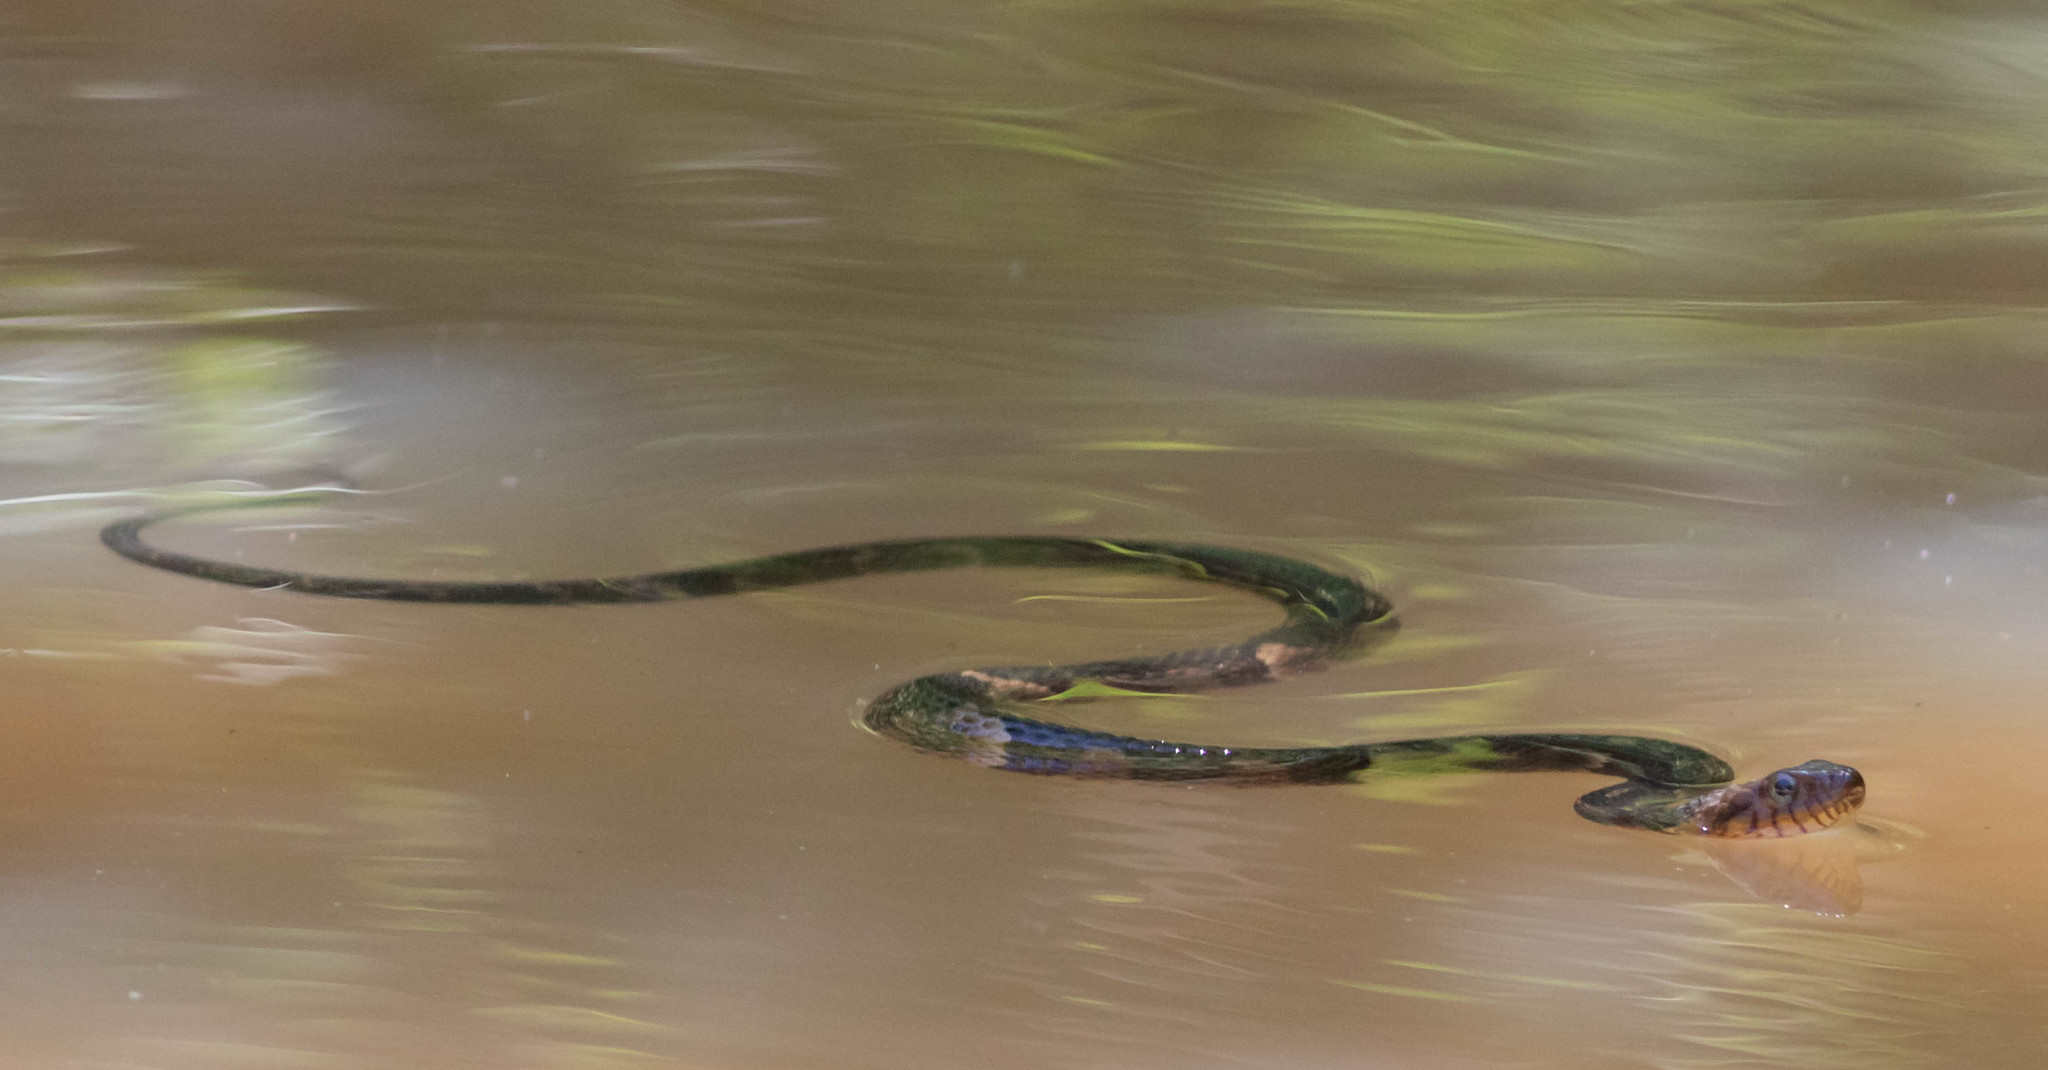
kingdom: Animalia
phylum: Chordata
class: Squamata
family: Colubridae
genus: Nerodia
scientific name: Nerodia fasciata
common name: Southern water snake
